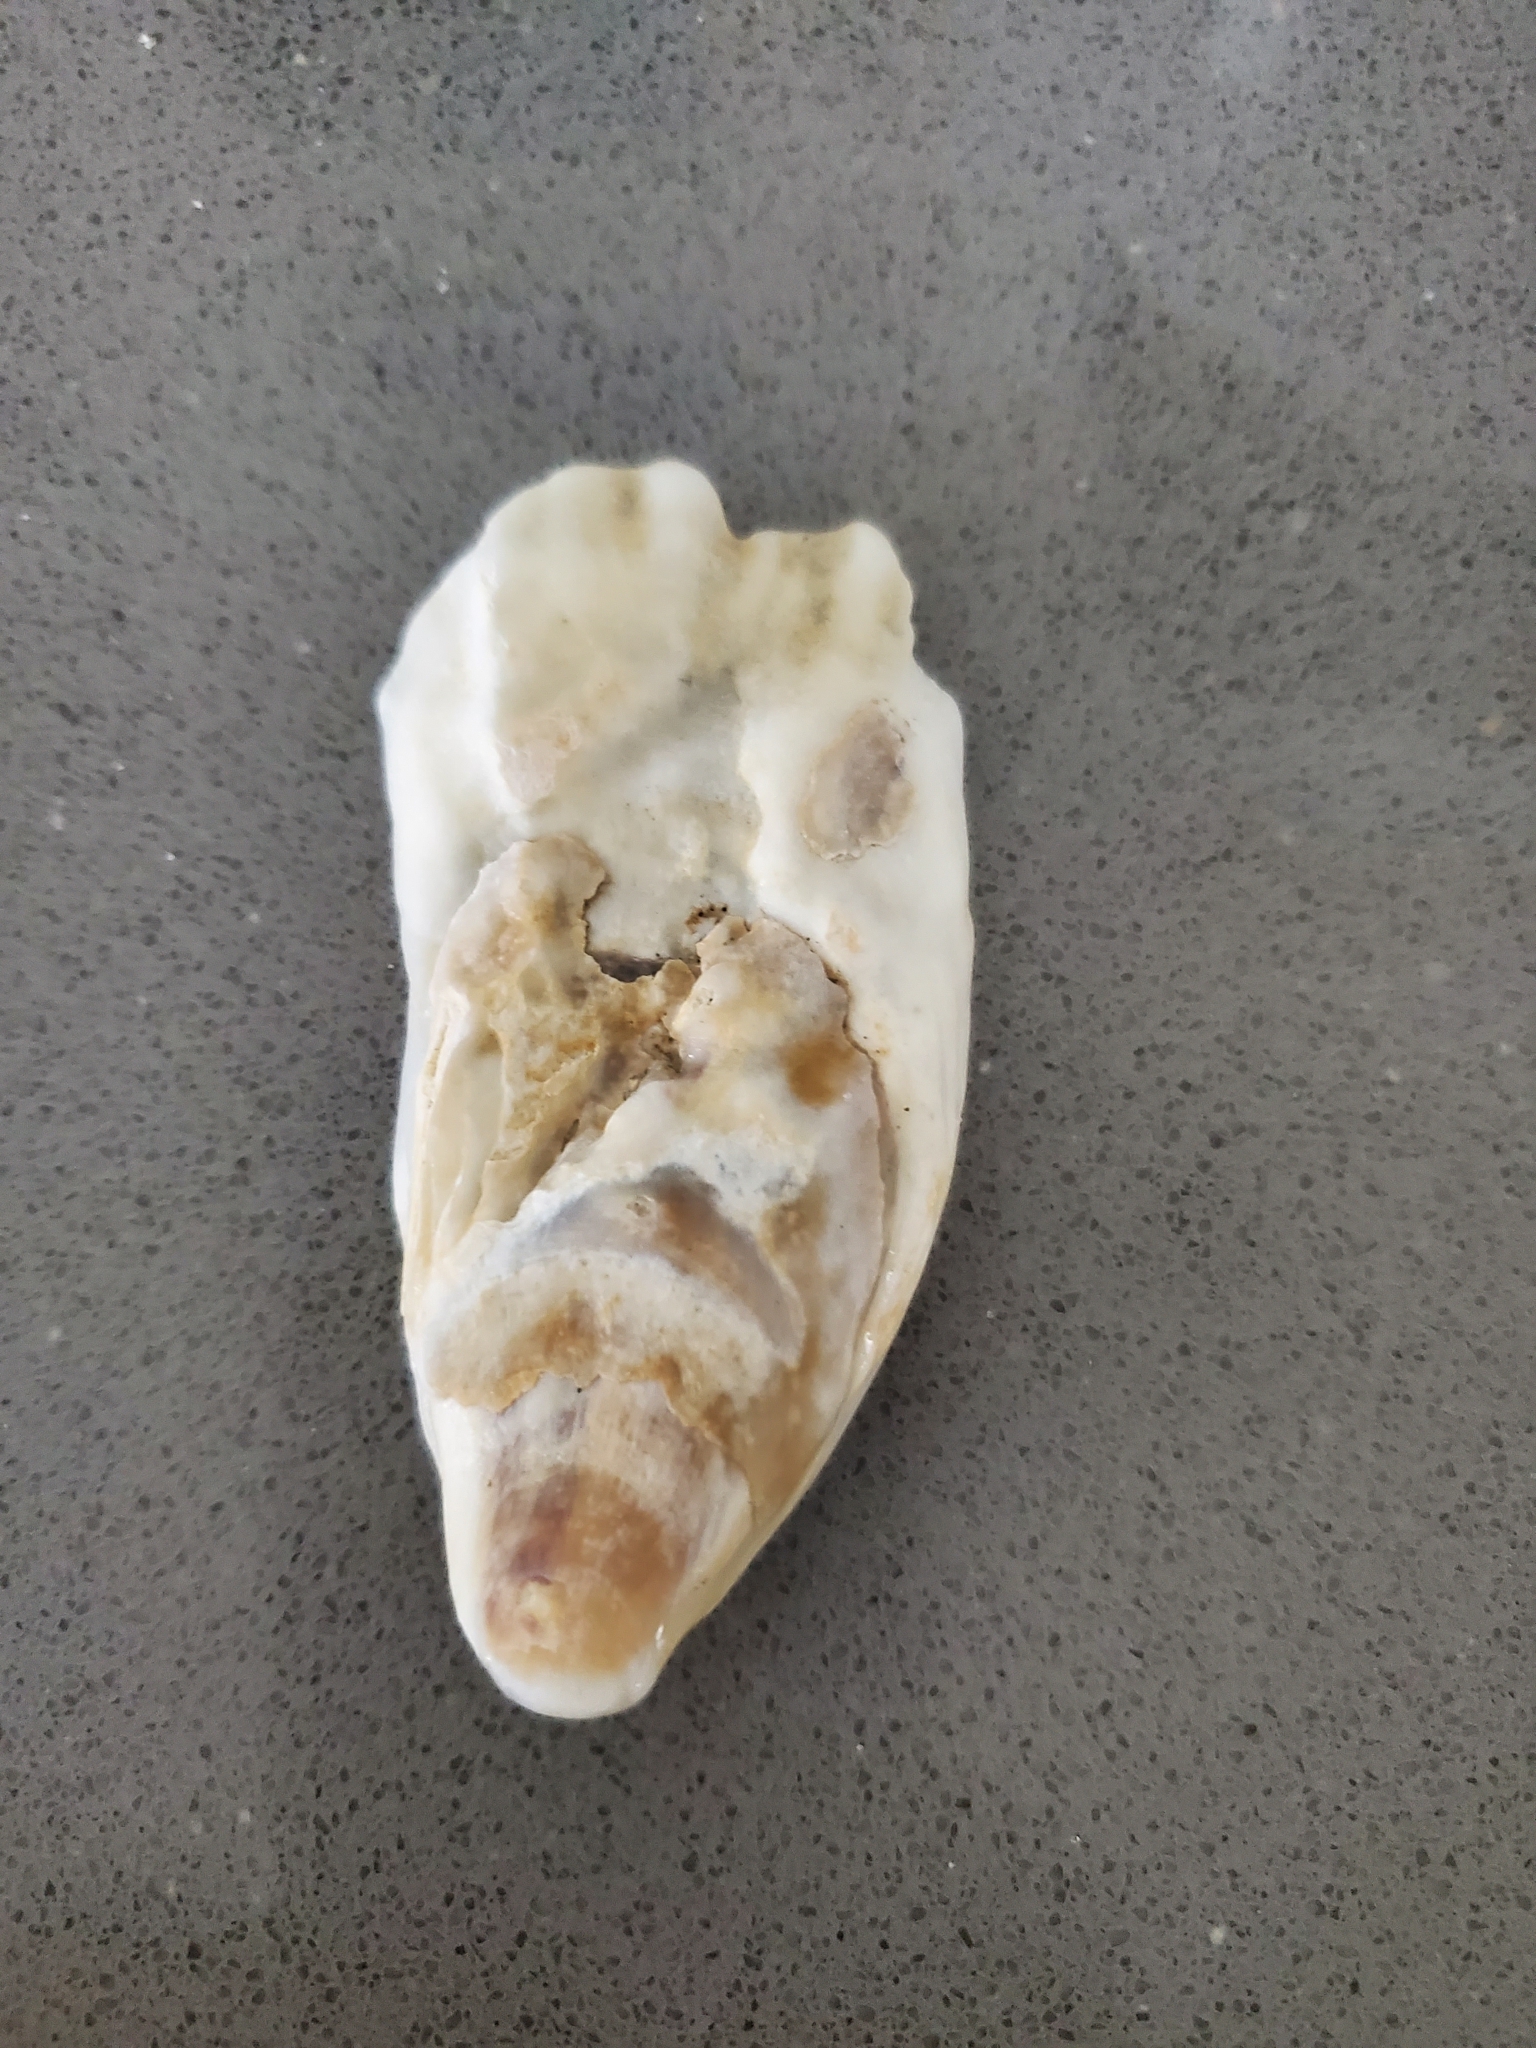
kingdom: Animalia
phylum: Mollusca
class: Bivalvia
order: Ostreida
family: Ostreidae
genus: Crassostrea
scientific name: Crassostrea virginica
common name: American oyster
